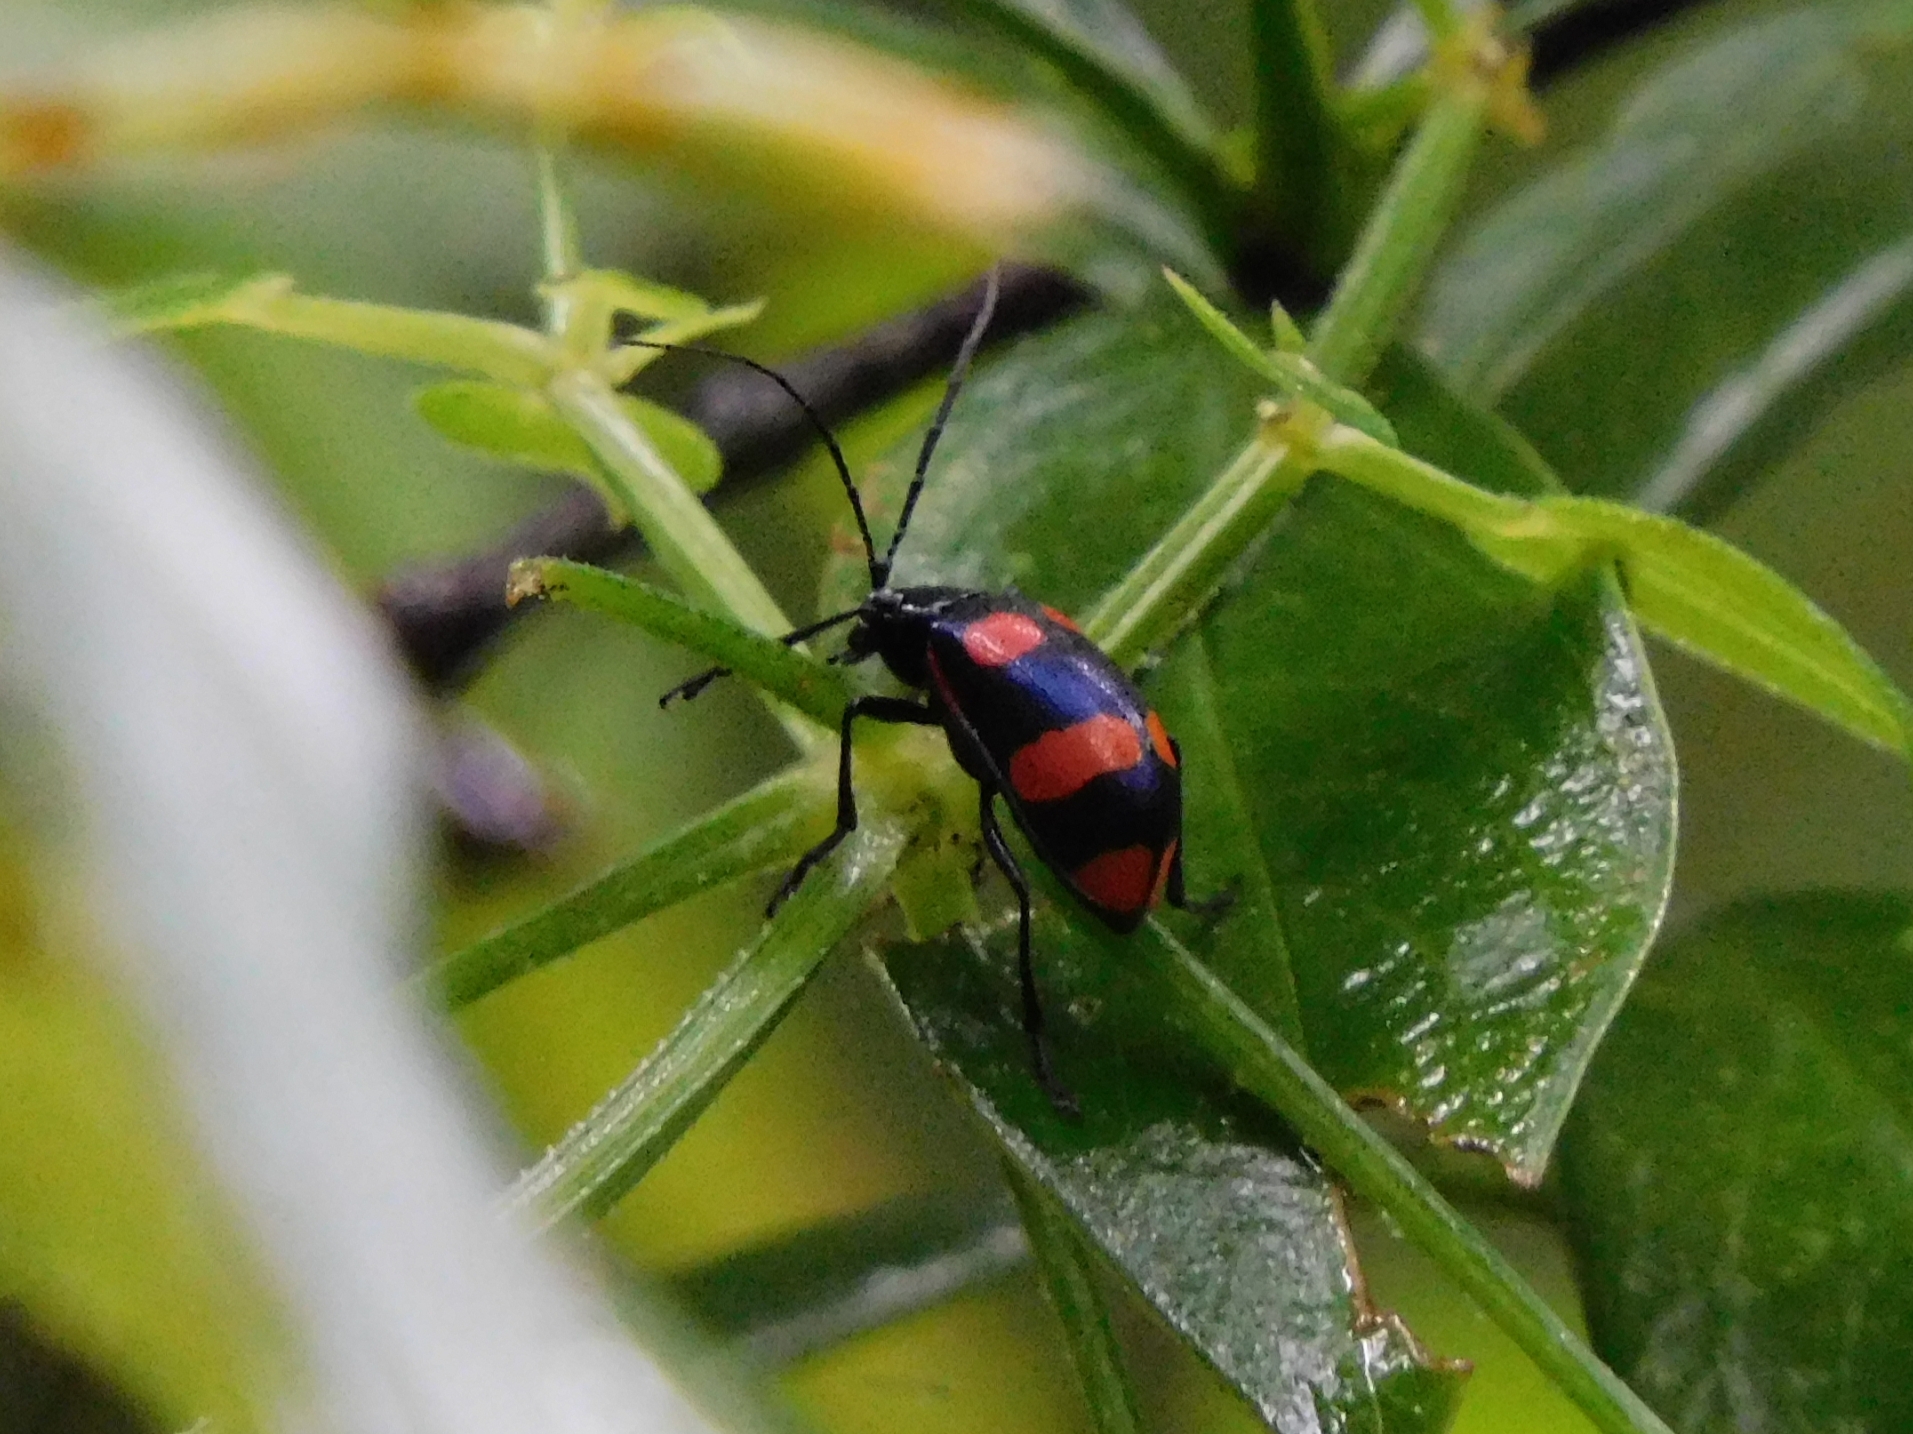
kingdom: Animalia
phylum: Arthropoda
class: Insecta
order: Coleoptera
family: Chrysomelidae
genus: Meristata
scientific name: Meristata
